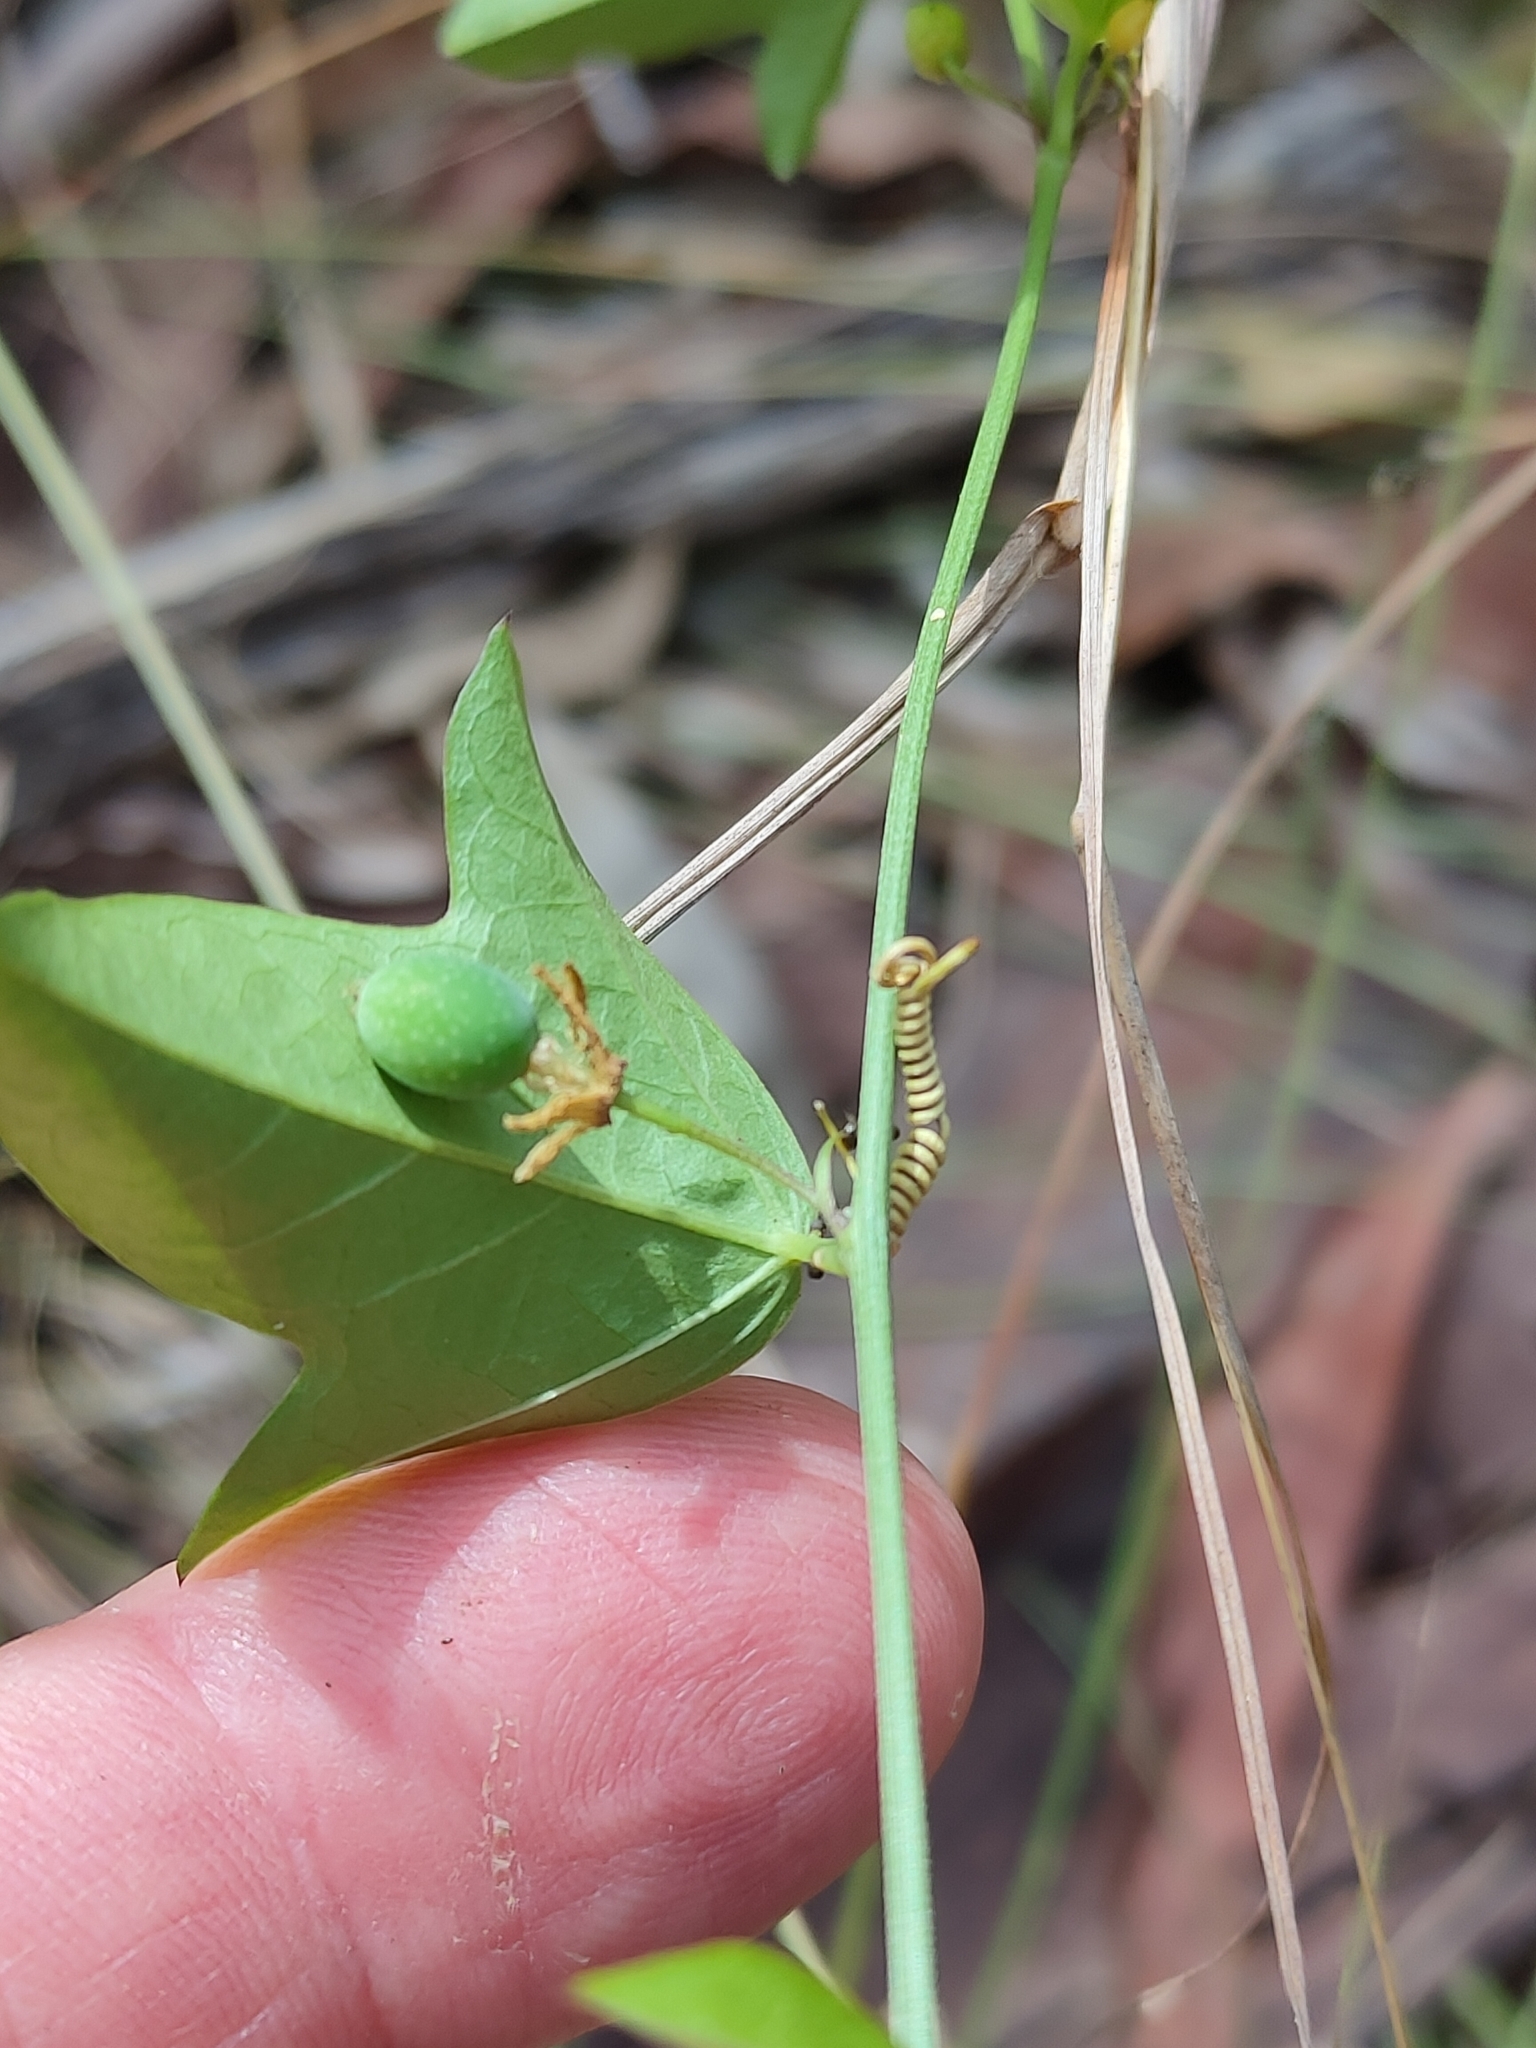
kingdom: Plantae
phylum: Tracheophyta
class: Magnoliopsida
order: Malpighiales
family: Passifloraceae
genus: Passiflora
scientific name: Passiflora pallida
